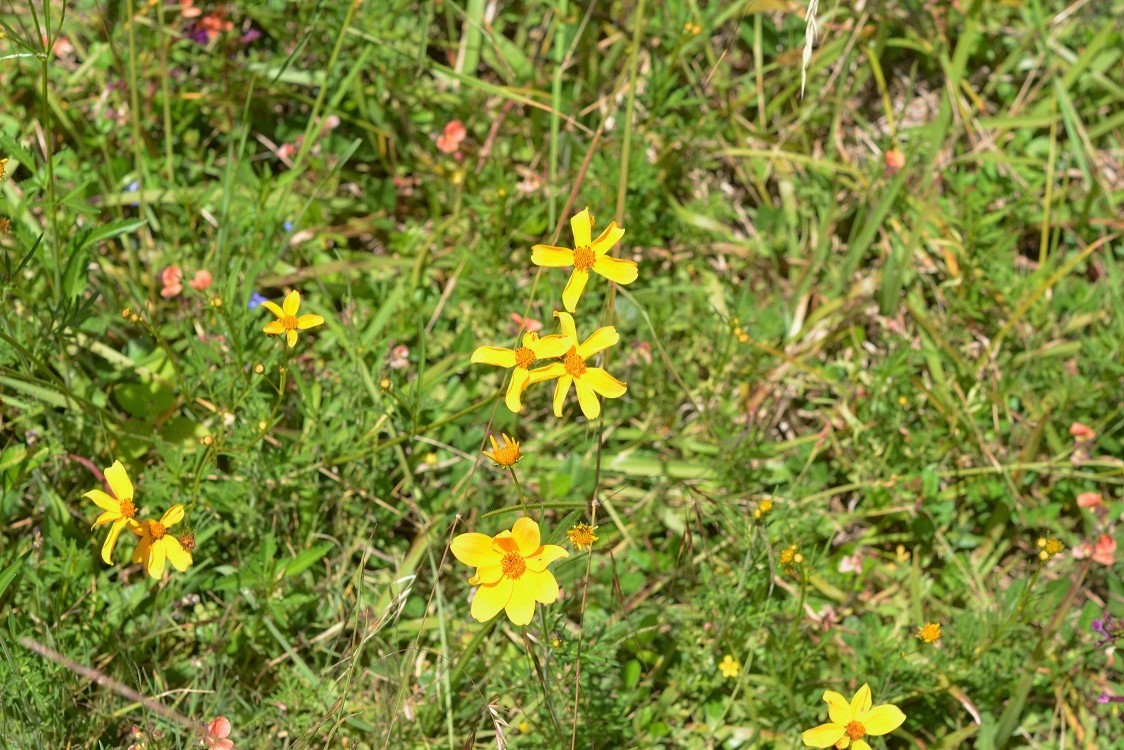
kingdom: Plantae
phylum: Tracheophyta
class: Magnoliopsida
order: Asterales
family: Asteraceae
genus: Bidens
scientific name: Bidens triplinervia
